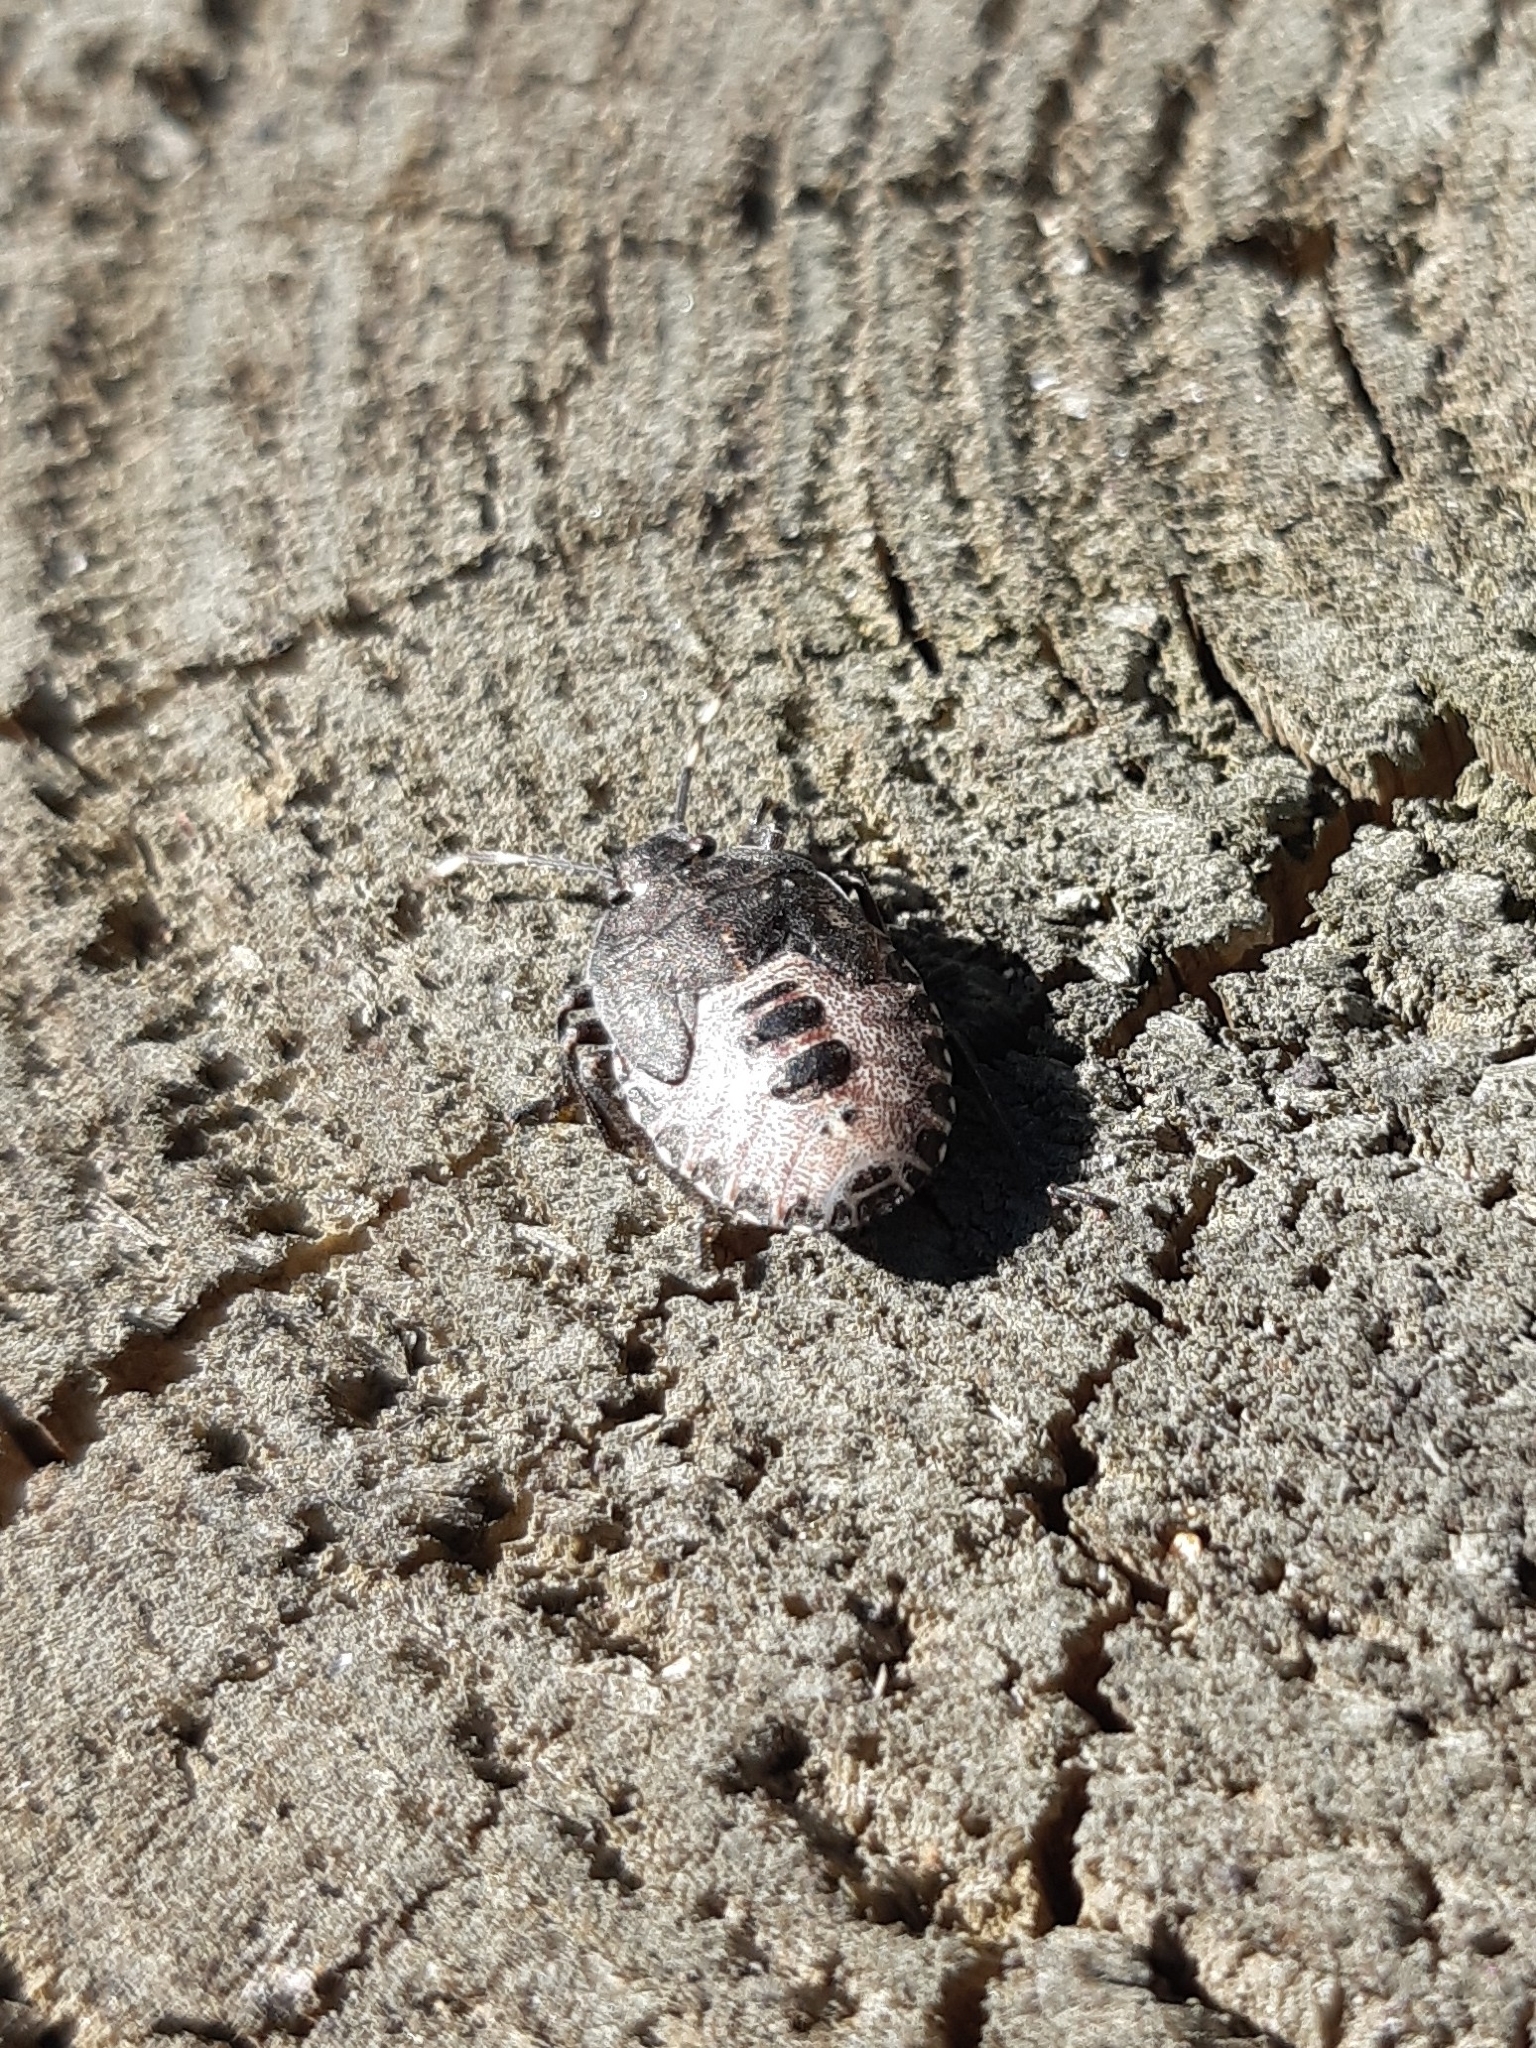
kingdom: Animalia
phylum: Arthropoda
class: Insecta
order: Hemiptera
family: Pentatomidae
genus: Rhaphigaster
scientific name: Rhaphigaster nebulosa
